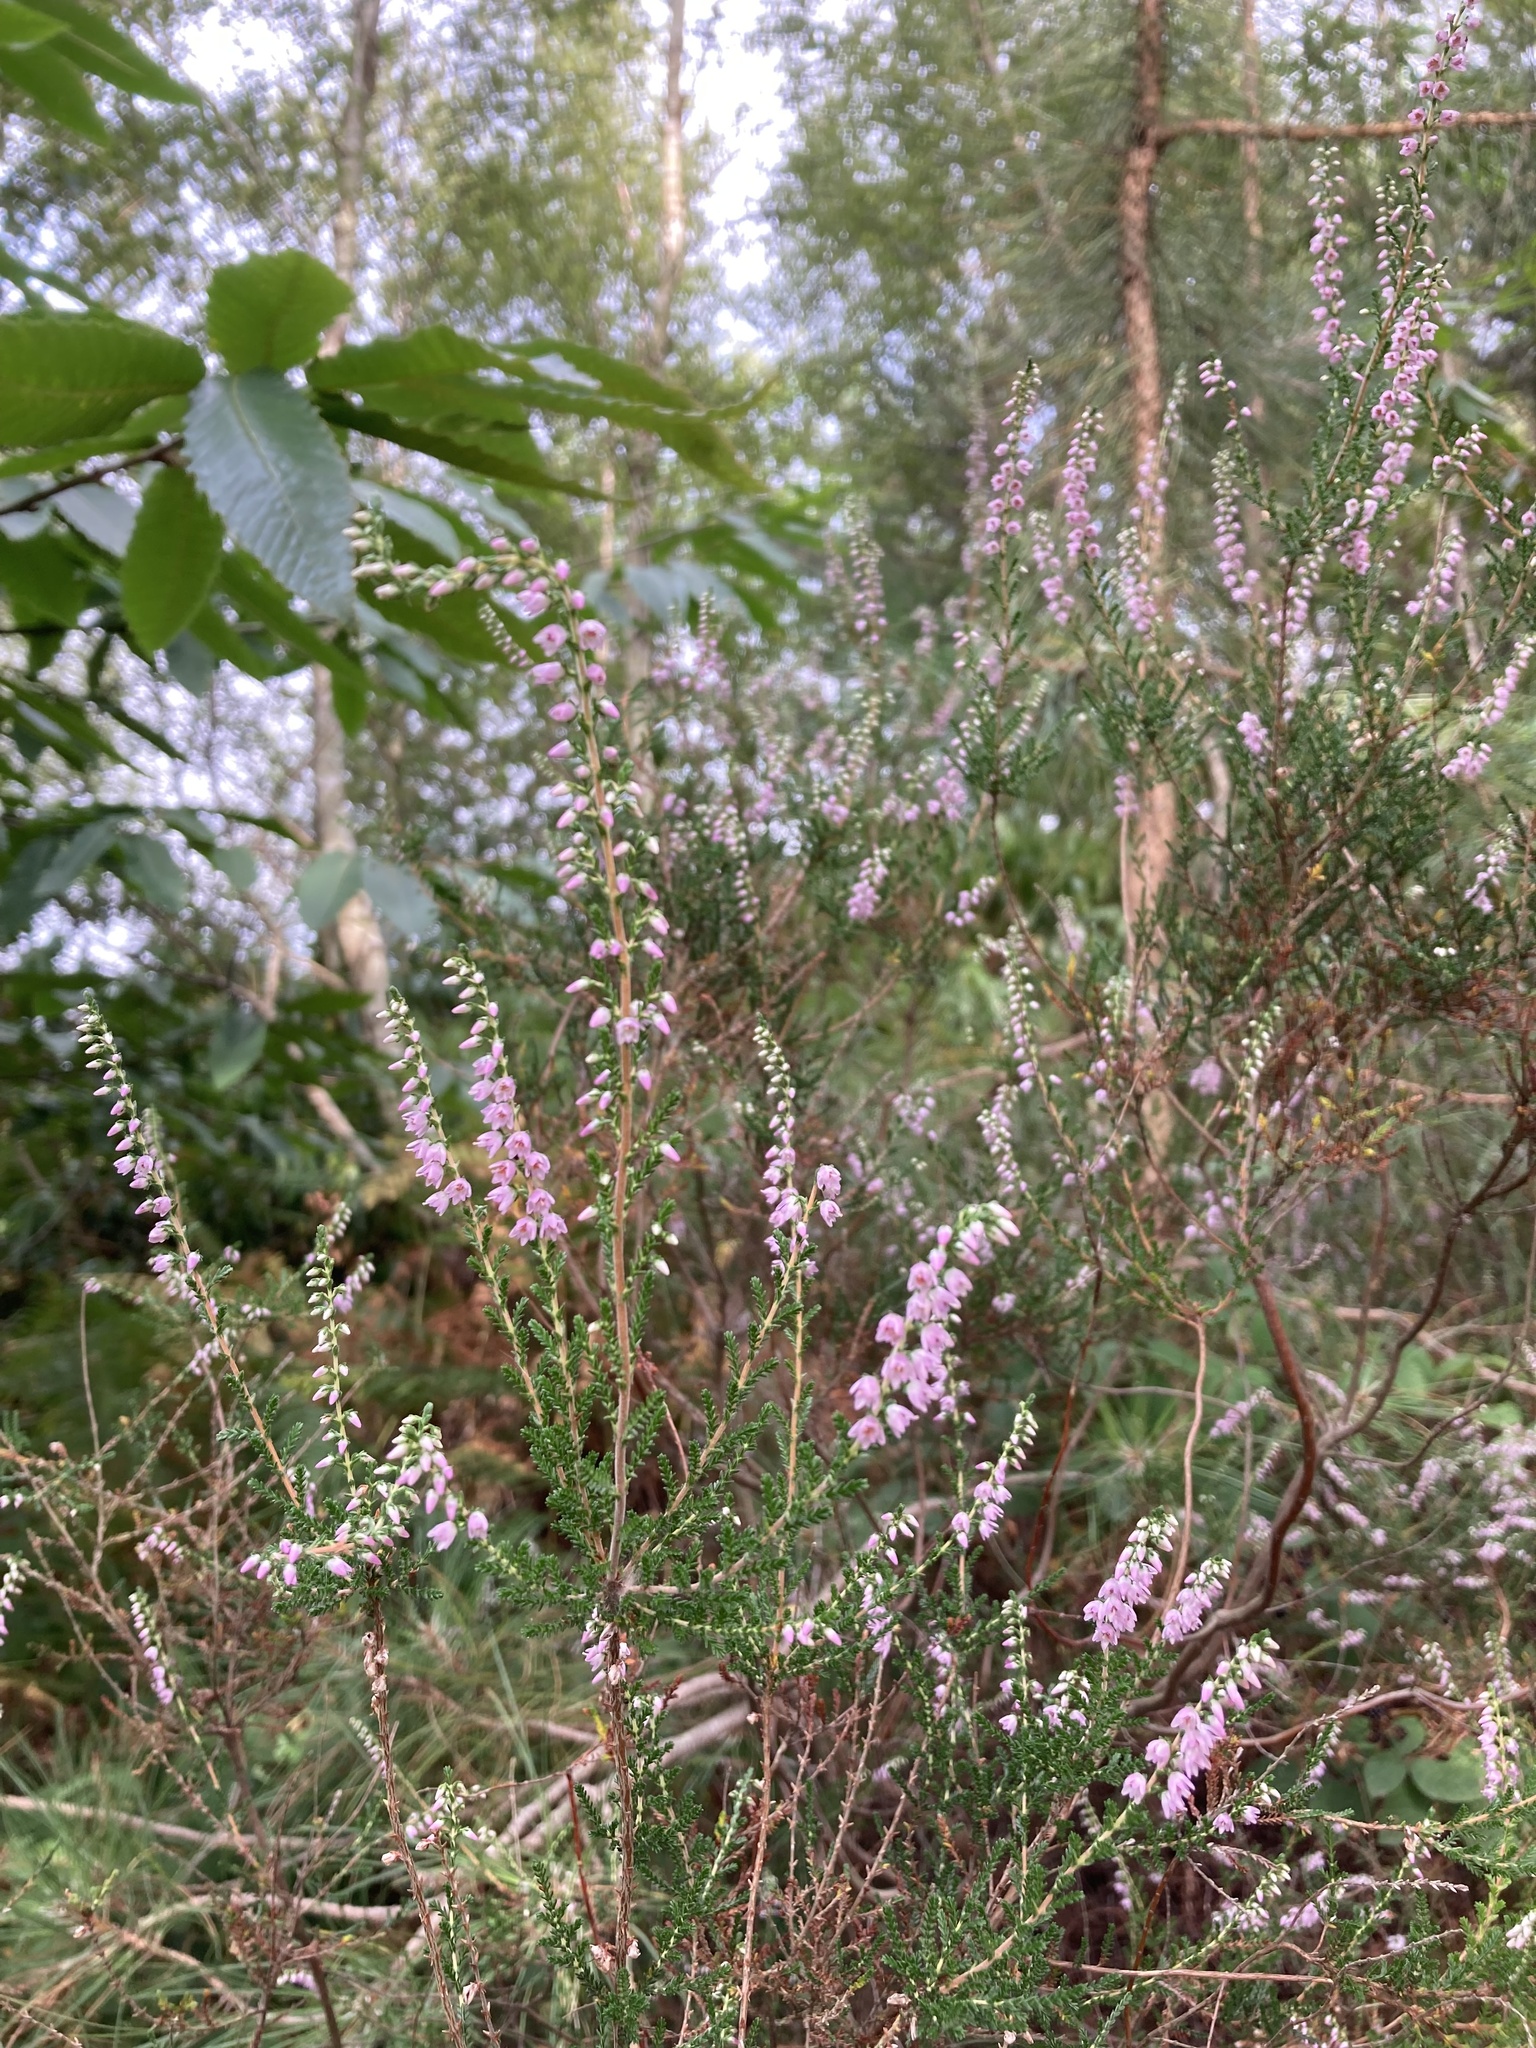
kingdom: Plantae
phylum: Tracheophyta
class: Magnoliopsida
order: Ericales
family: Ericaceae
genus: Calluna
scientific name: Calluna vulgaris
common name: Heather
